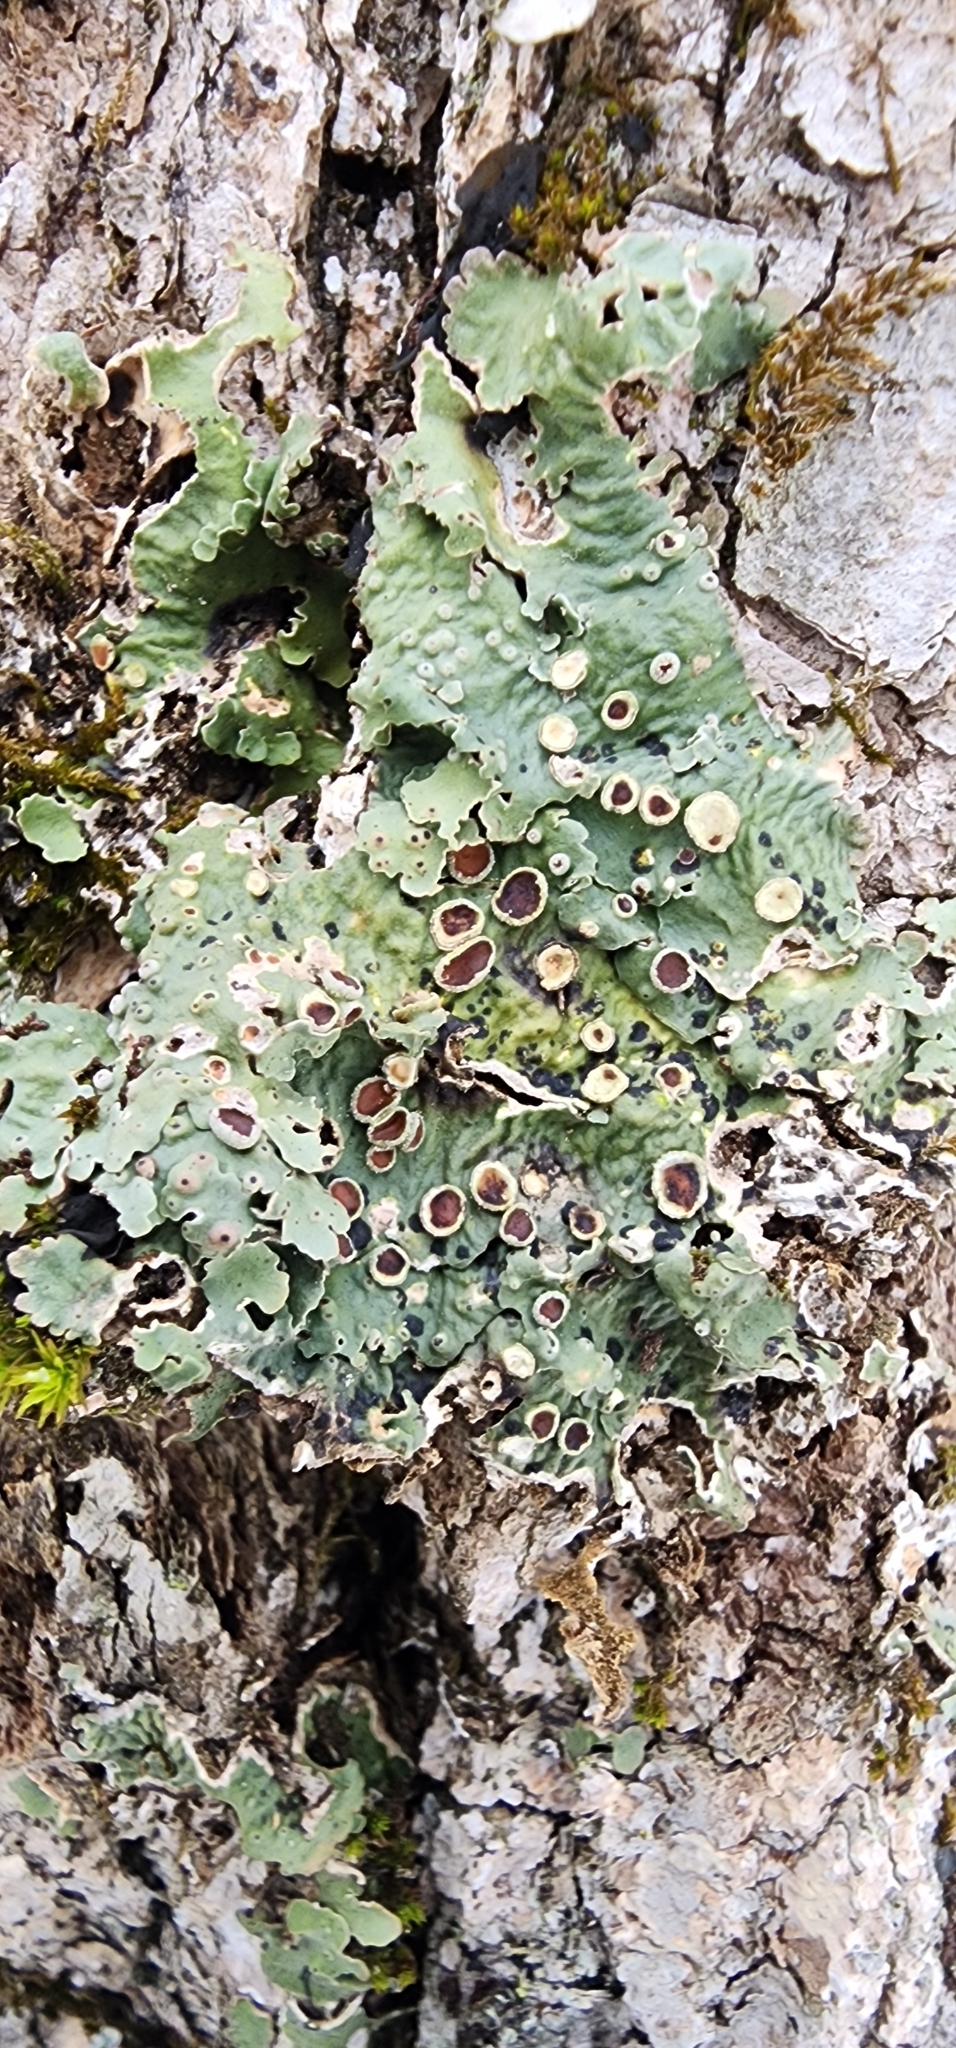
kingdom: Fungi
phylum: Ascomycota
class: Lecanoromycetes
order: Peltigerales
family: Lobariaceae
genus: Ricasolia
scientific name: Ricasolia quercizans
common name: Smooth lungwort
